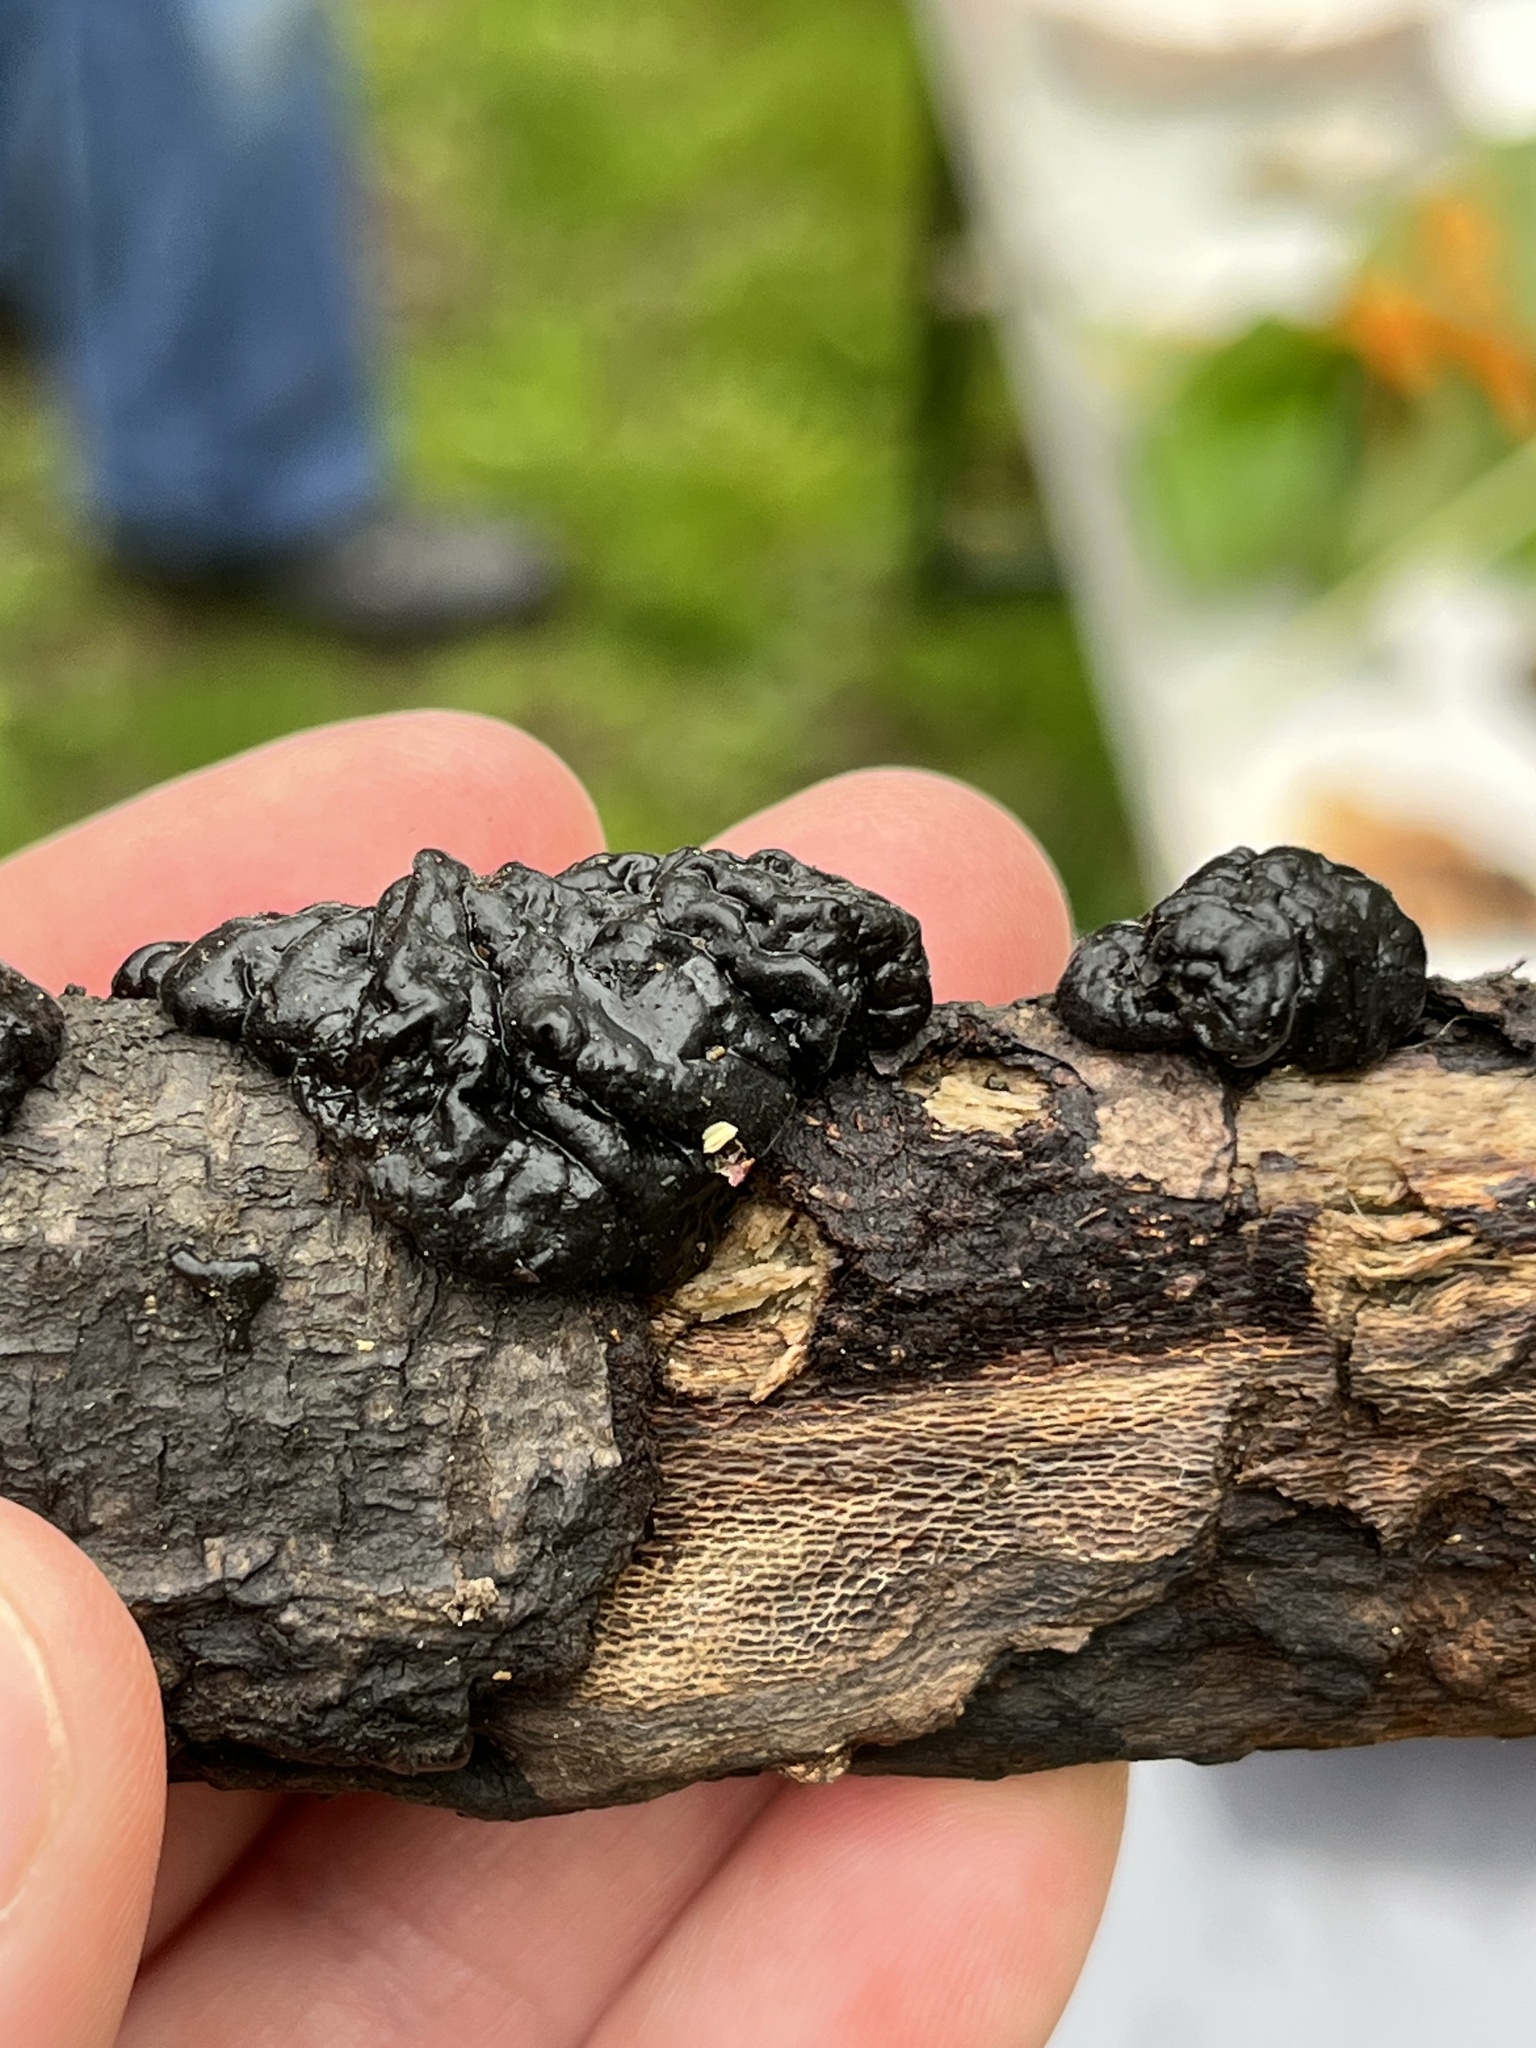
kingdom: Fungi
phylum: Basidiomycota
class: Agaricomycetes
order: Auriculariales
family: Auriculariaceae
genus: Exidia
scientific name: Exidia nigricans
